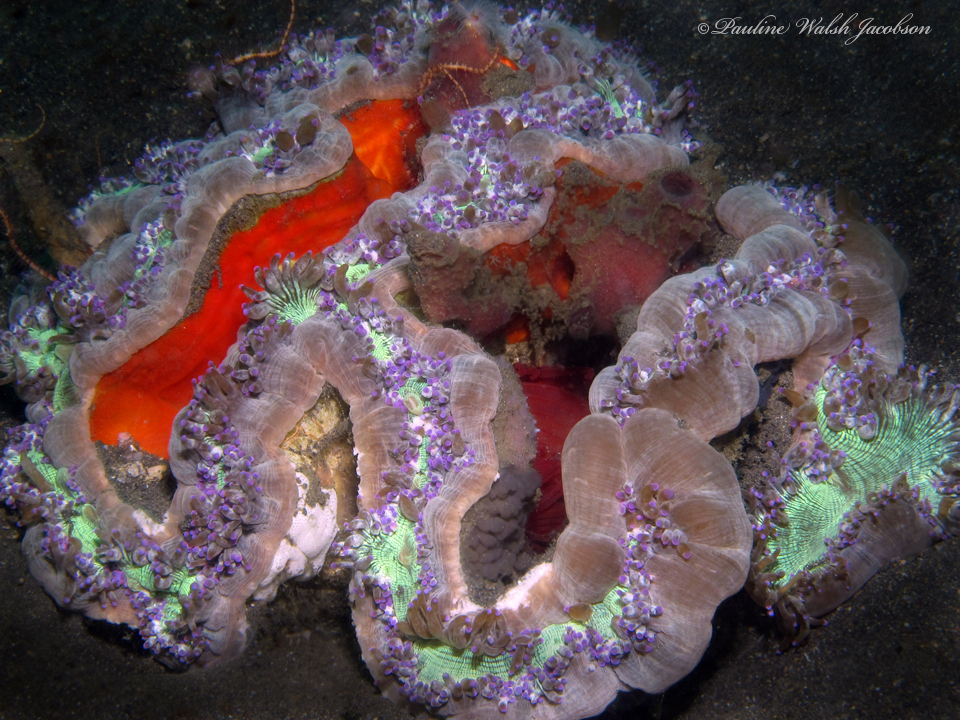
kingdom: Animalia
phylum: Cnidaria
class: Anthozoa
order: Scleractinia
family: Merulinidae
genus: Catalaphyllia
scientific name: Catalaphyllia jardinei
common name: Wonder coral
